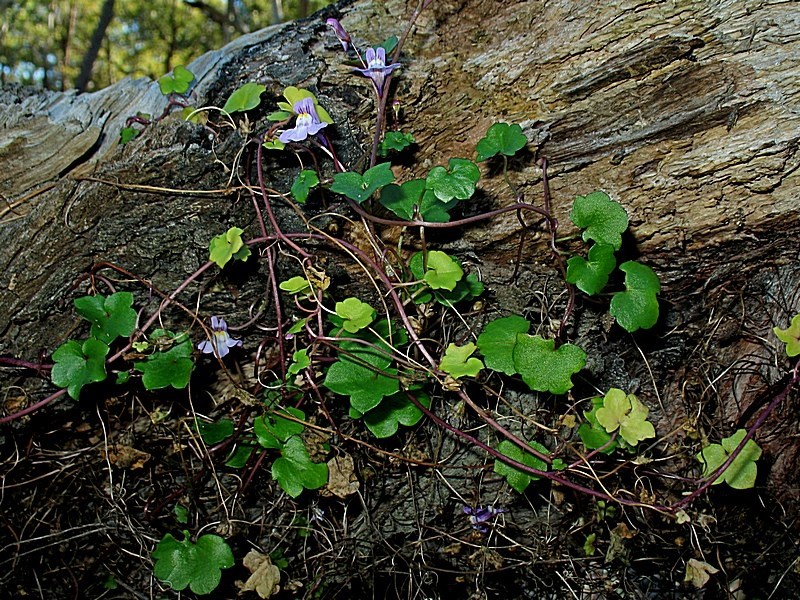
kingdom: Plantae
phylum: Tracheophyta
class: Magnoliopsida
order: Lamiales
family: Plantaginaceae
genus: Cymbalaria
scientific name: Cymbalaria muralis
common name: Ivy-leaved toadflax
